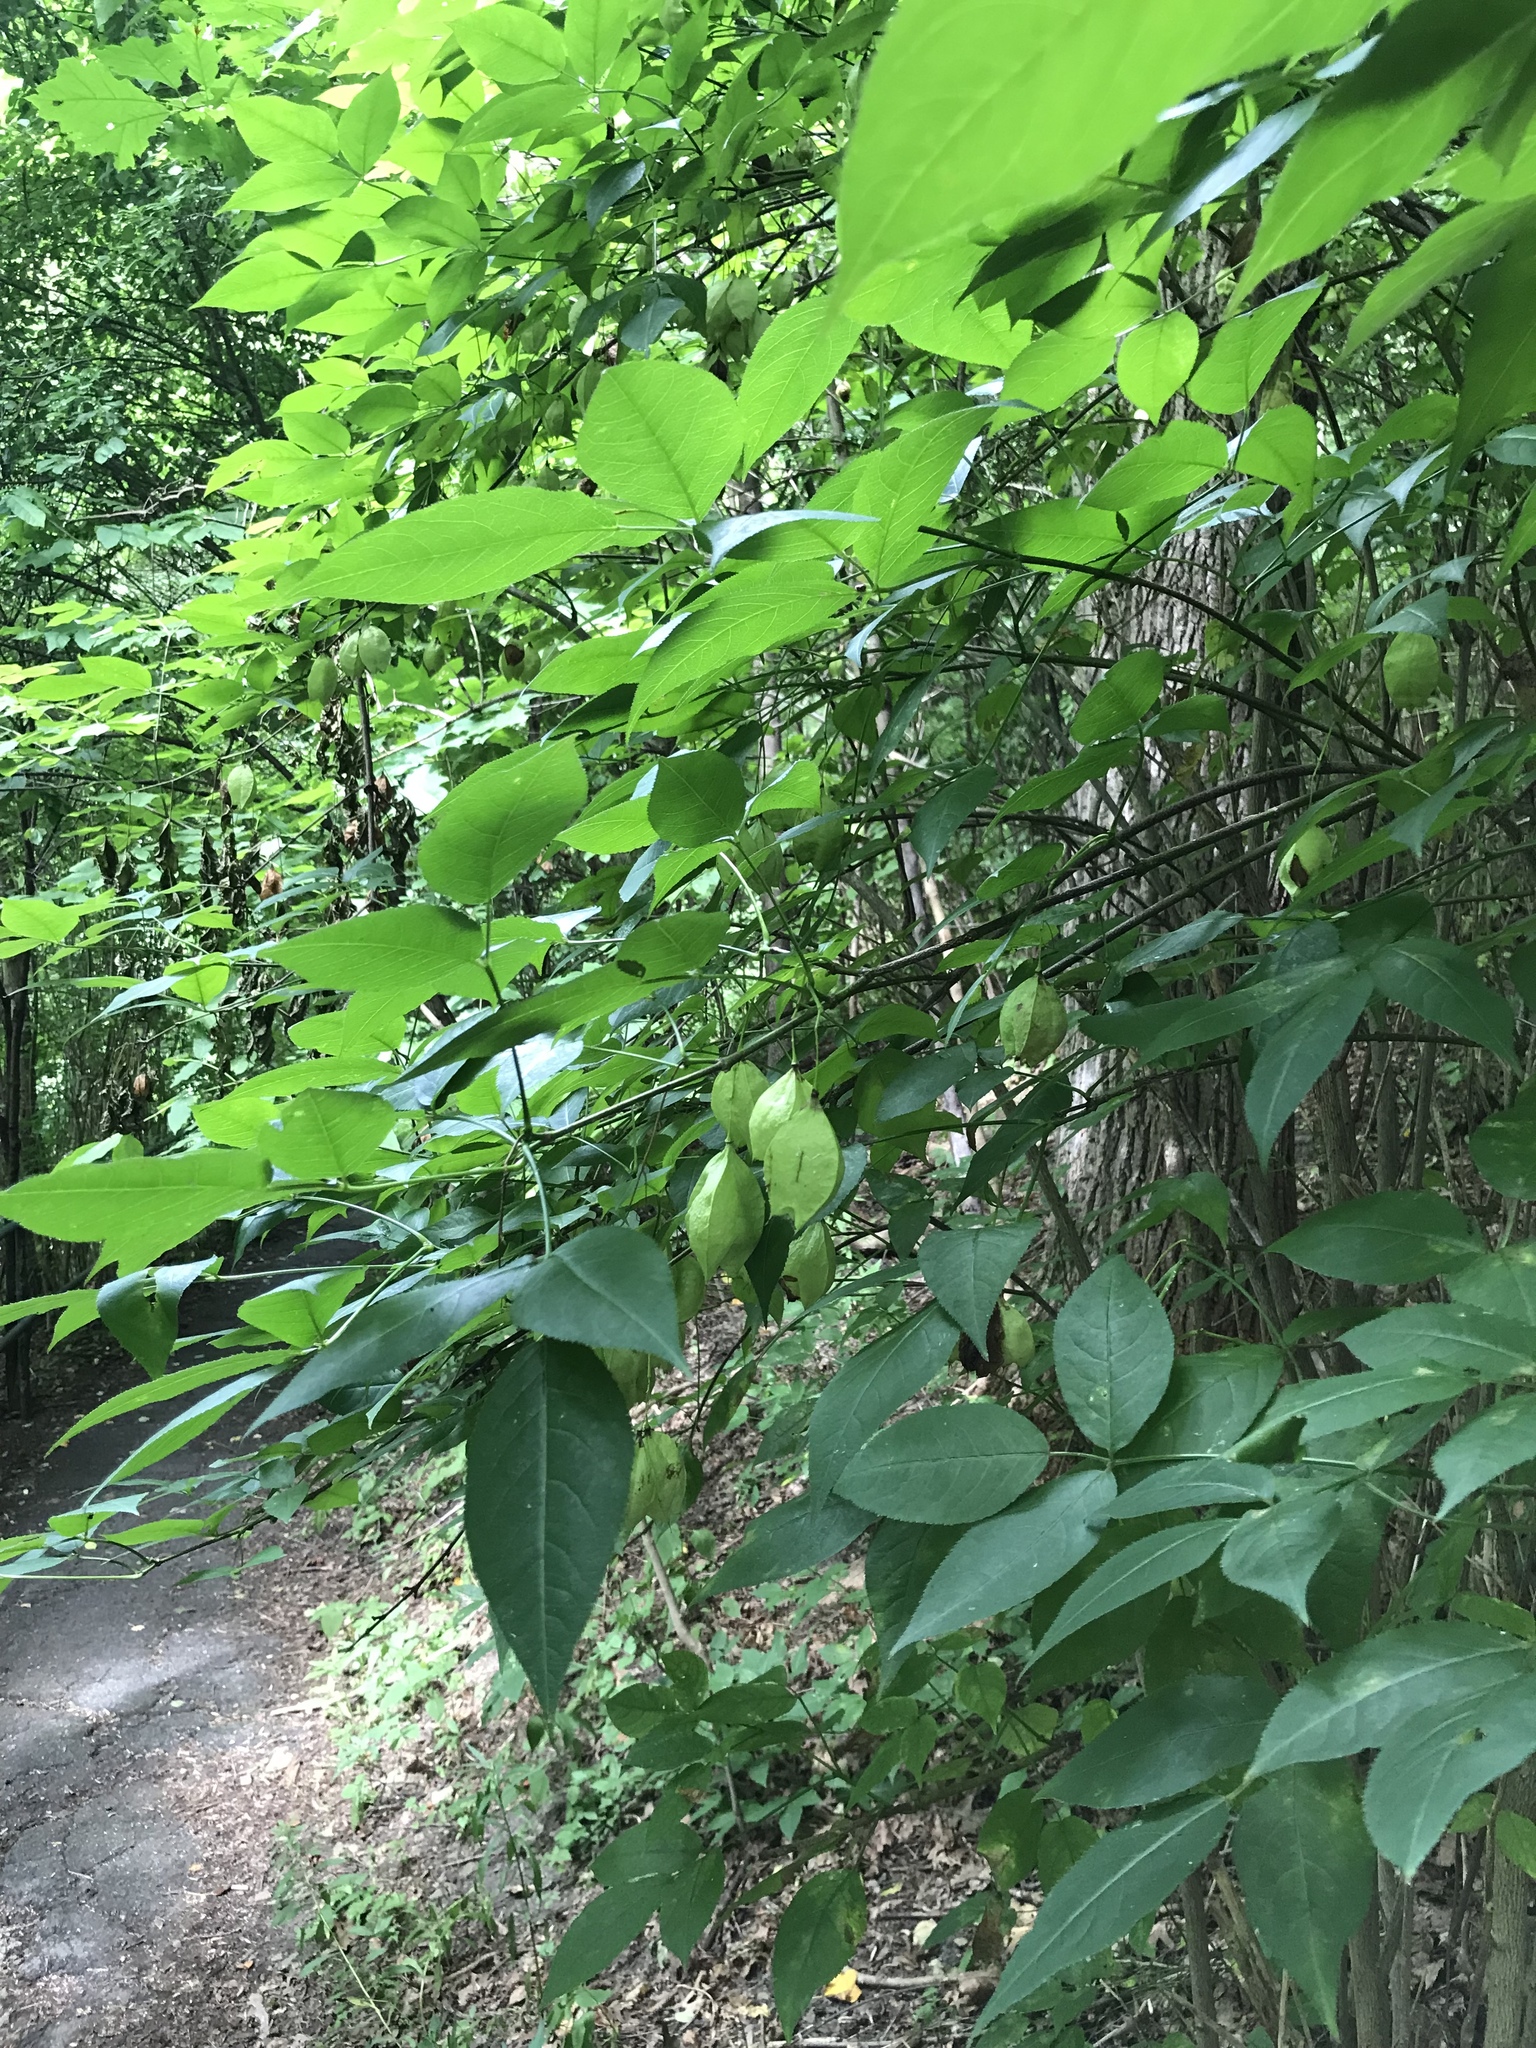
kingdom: Plantae
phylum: Tracheophyta
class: Magnoliopsida
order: Crossosomatales
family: Staphyleaceae
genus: Staphylea
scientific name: Staphylea trifolia
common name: American bladdernut
